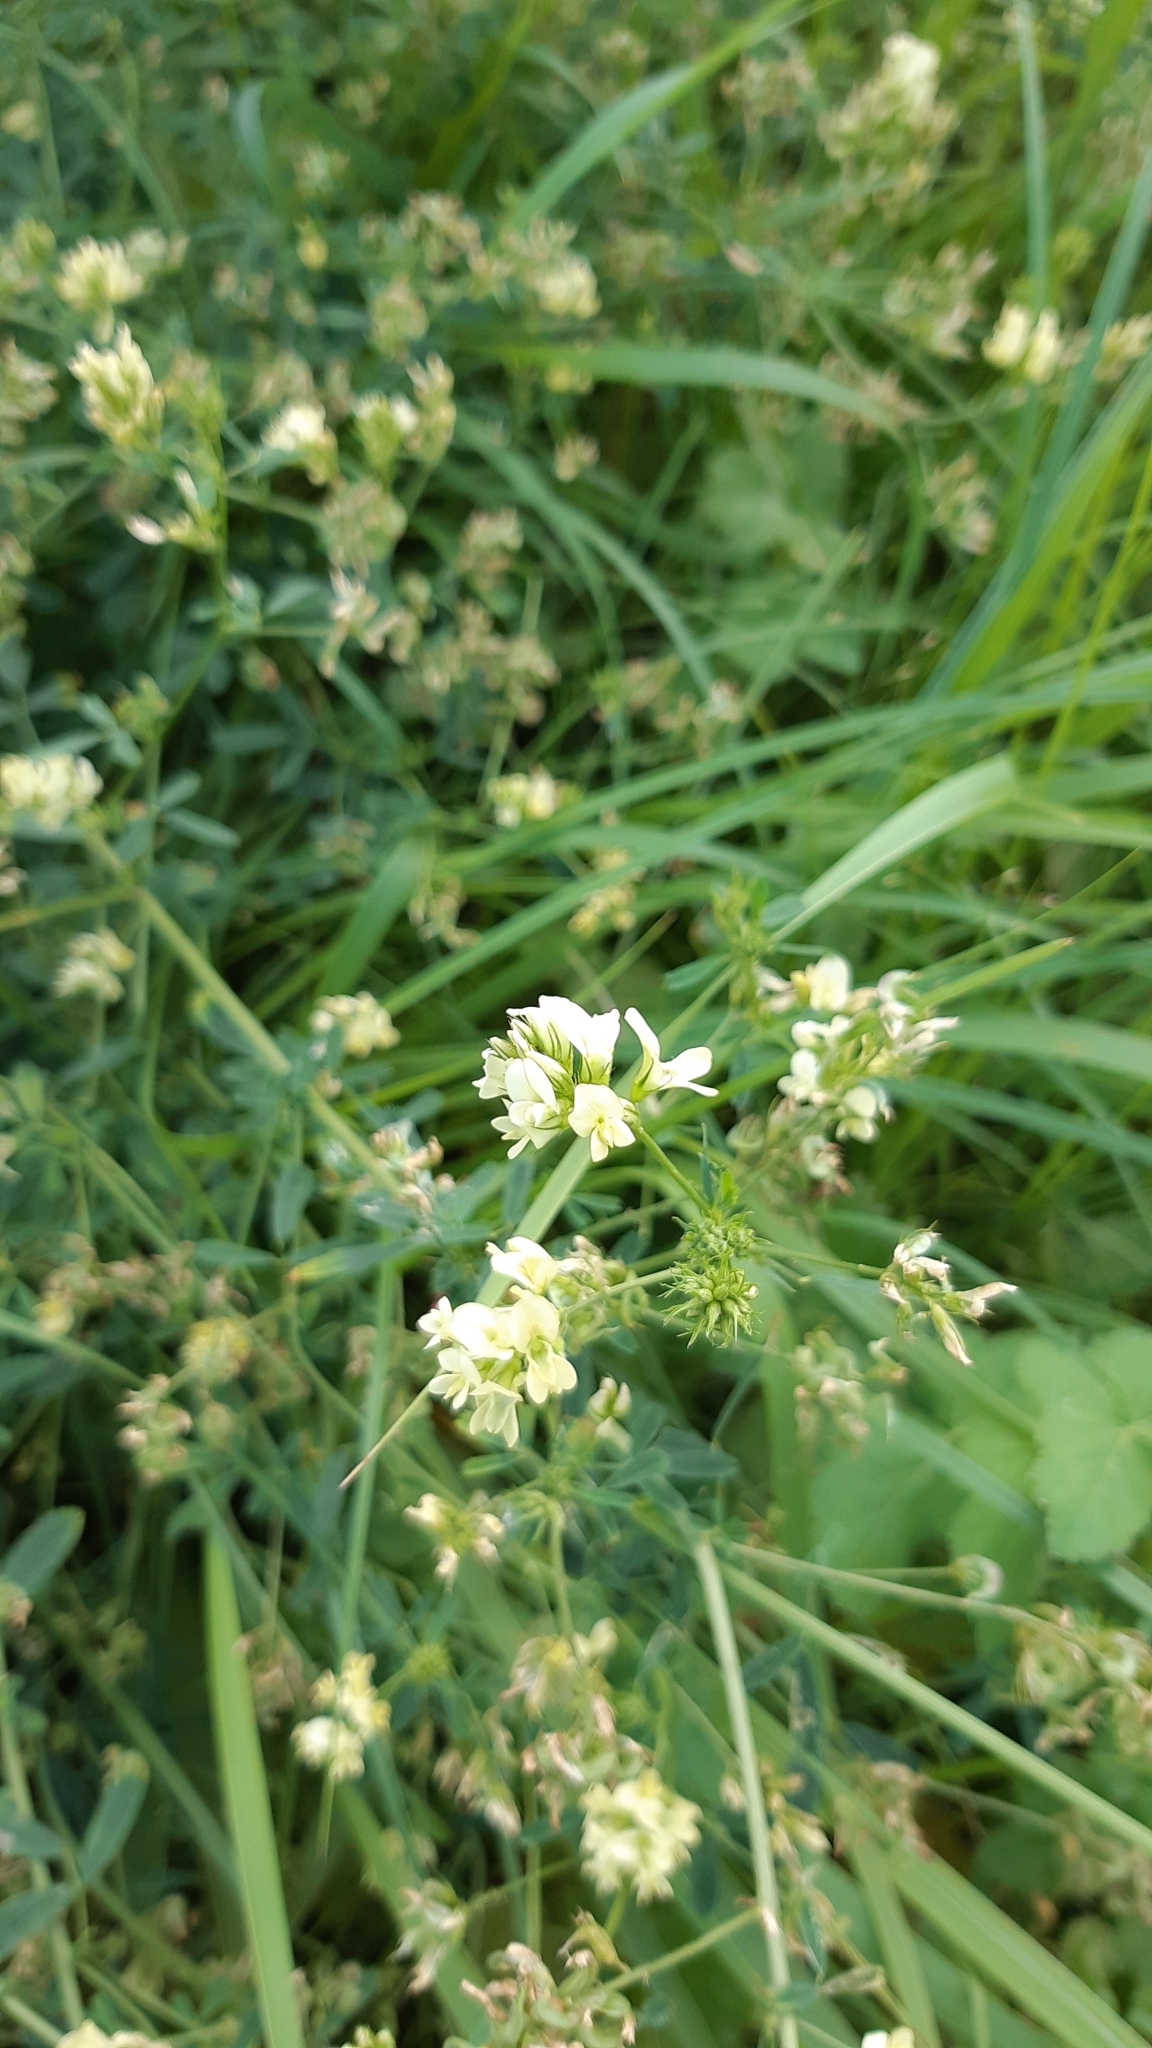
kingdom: Plantae
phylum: Tracheophyta
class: Magnoliopsida
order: Fabales
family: Fabaceae
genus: Medicago
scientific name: Medicago sativa
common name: Alfalfa
